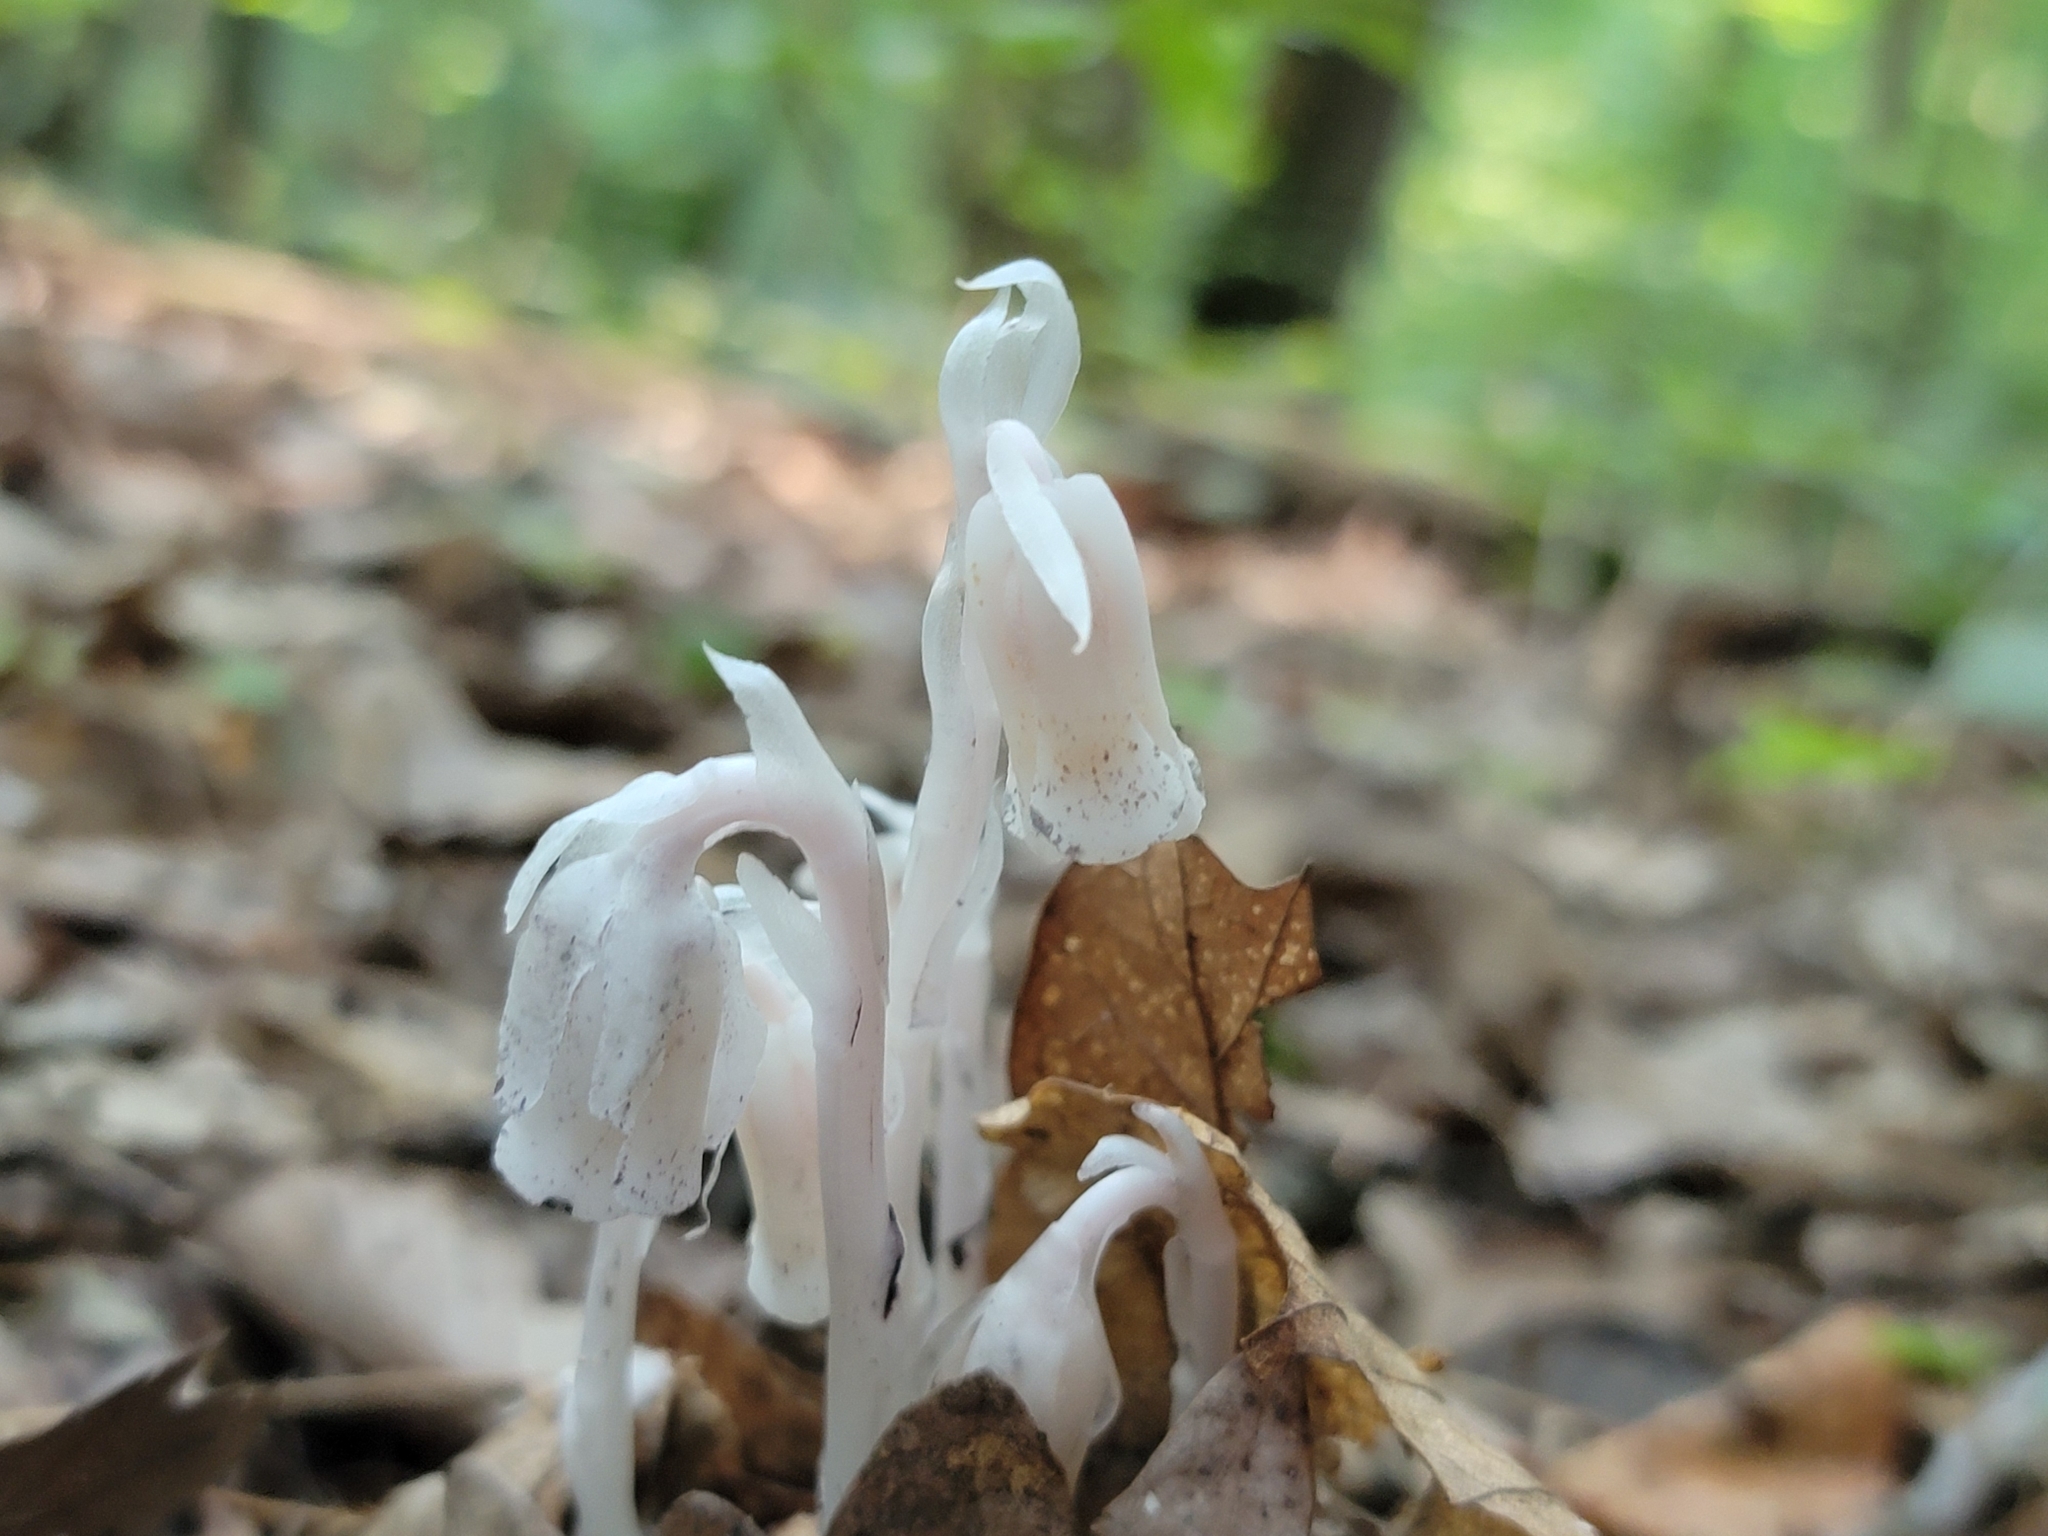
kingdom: Plantae
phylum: Tracheophyta
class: Magnoliopsida
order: Ericales
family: Ericaceae
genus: Monotropa
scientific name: Monotropa uniflora
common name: Convulsion root
